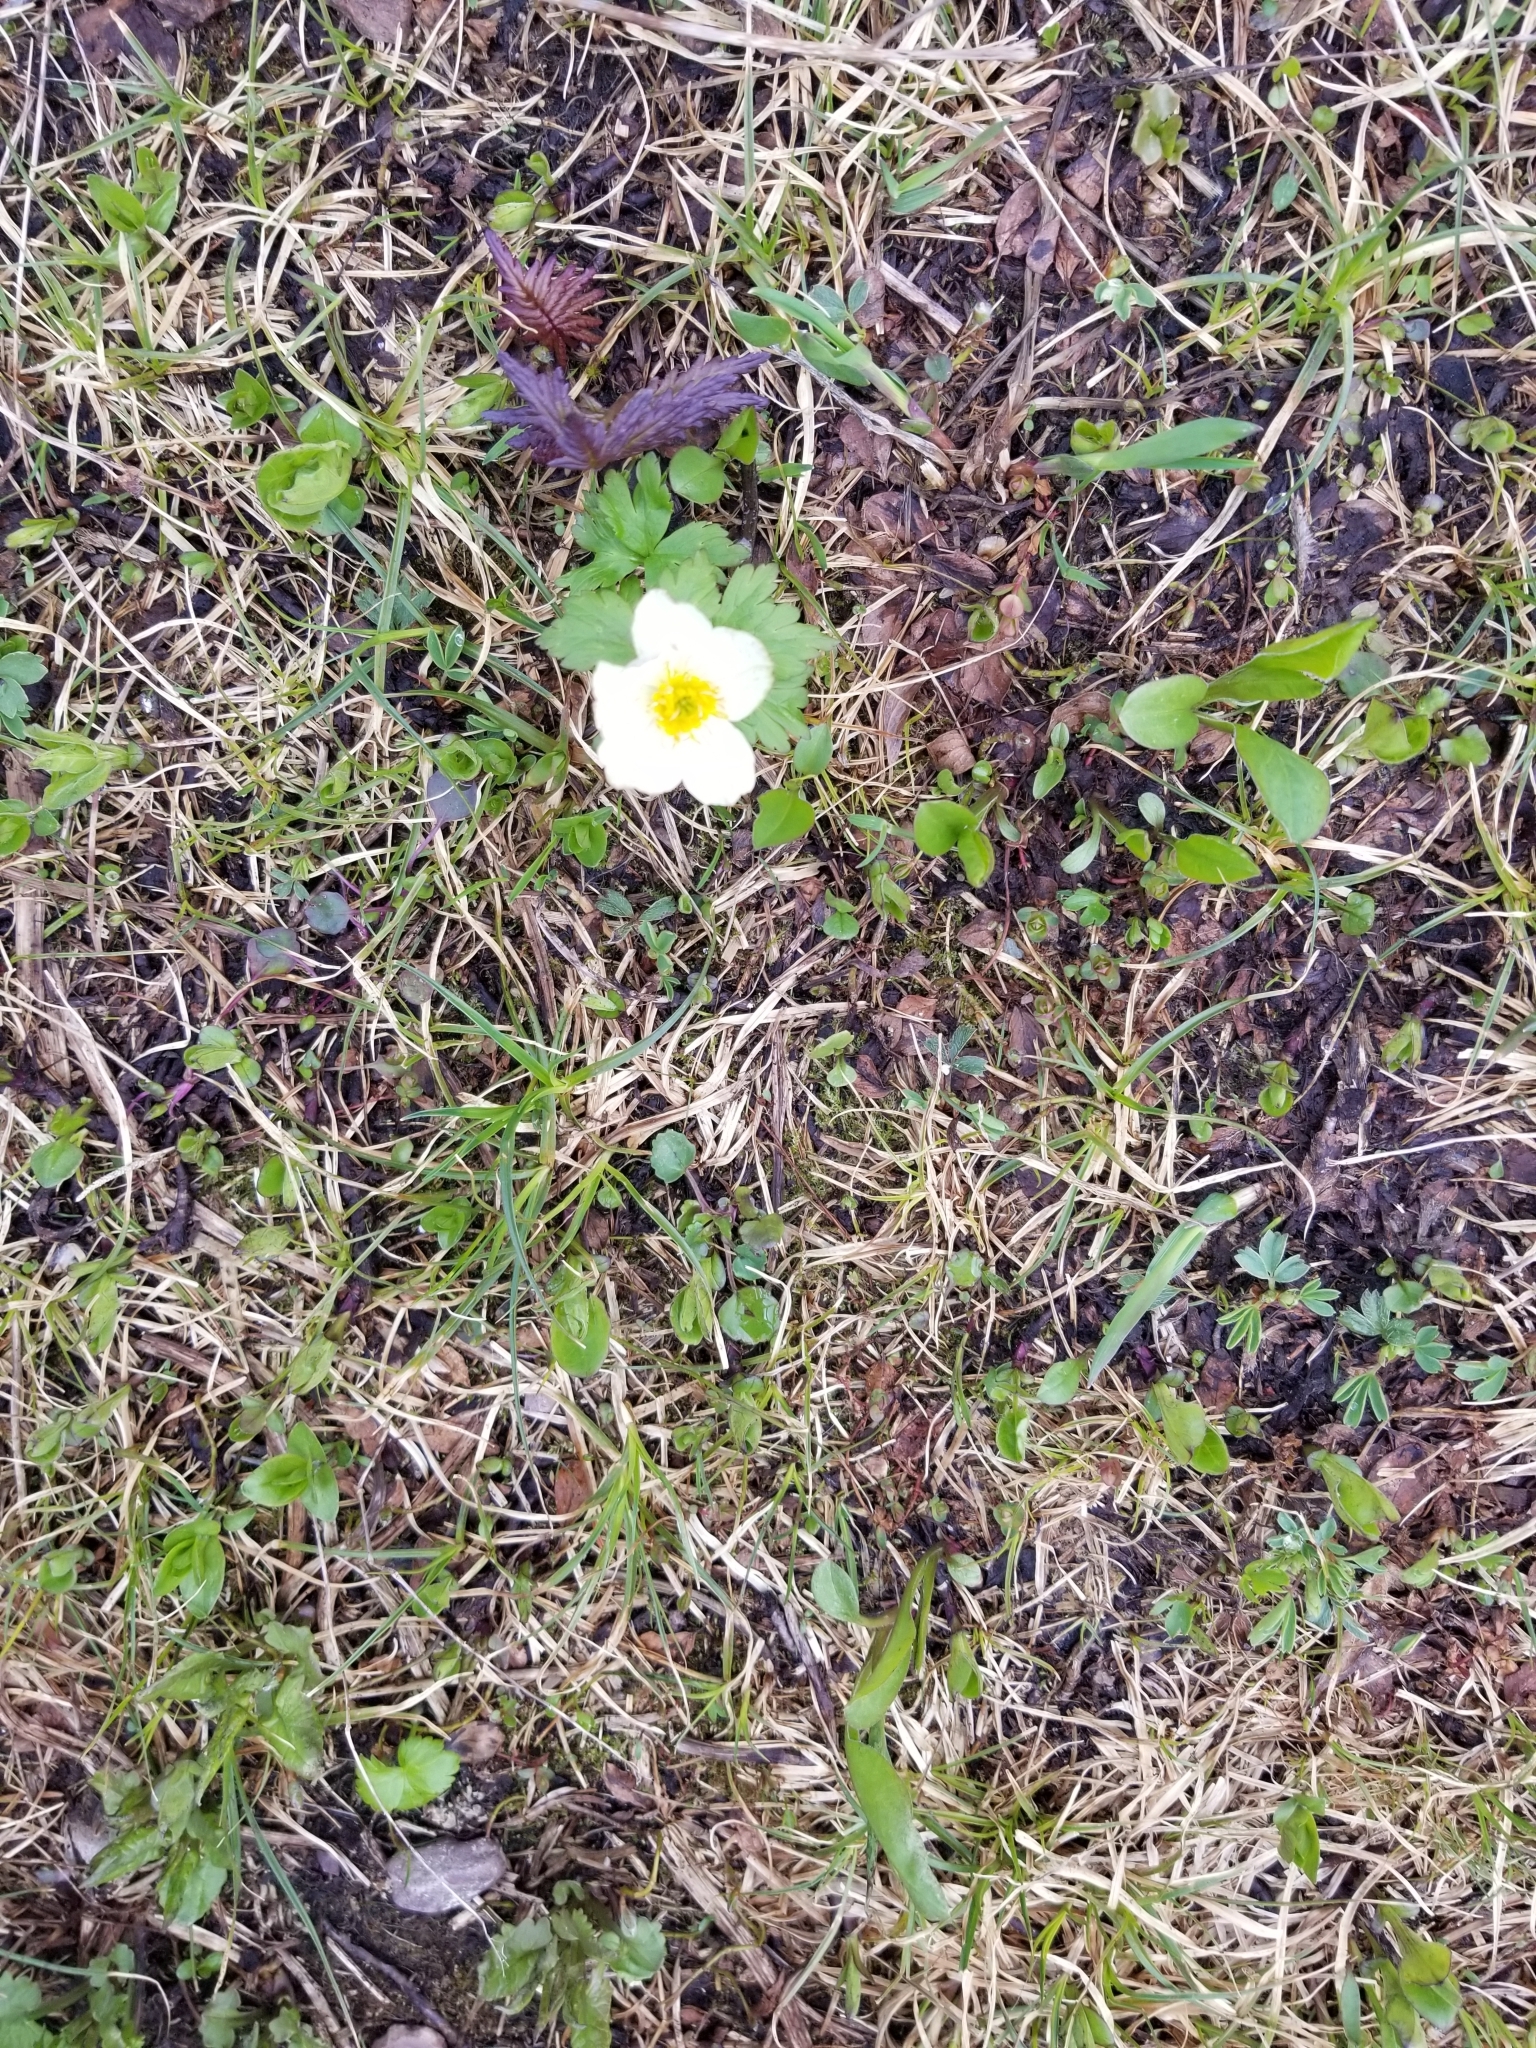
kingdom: Plantae
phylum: Tracheophyta
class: Magnoliopsida
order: Ranunculales
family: Ranunculaceae
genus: Trollius
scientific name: Trollius laxus
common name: American globeflower
